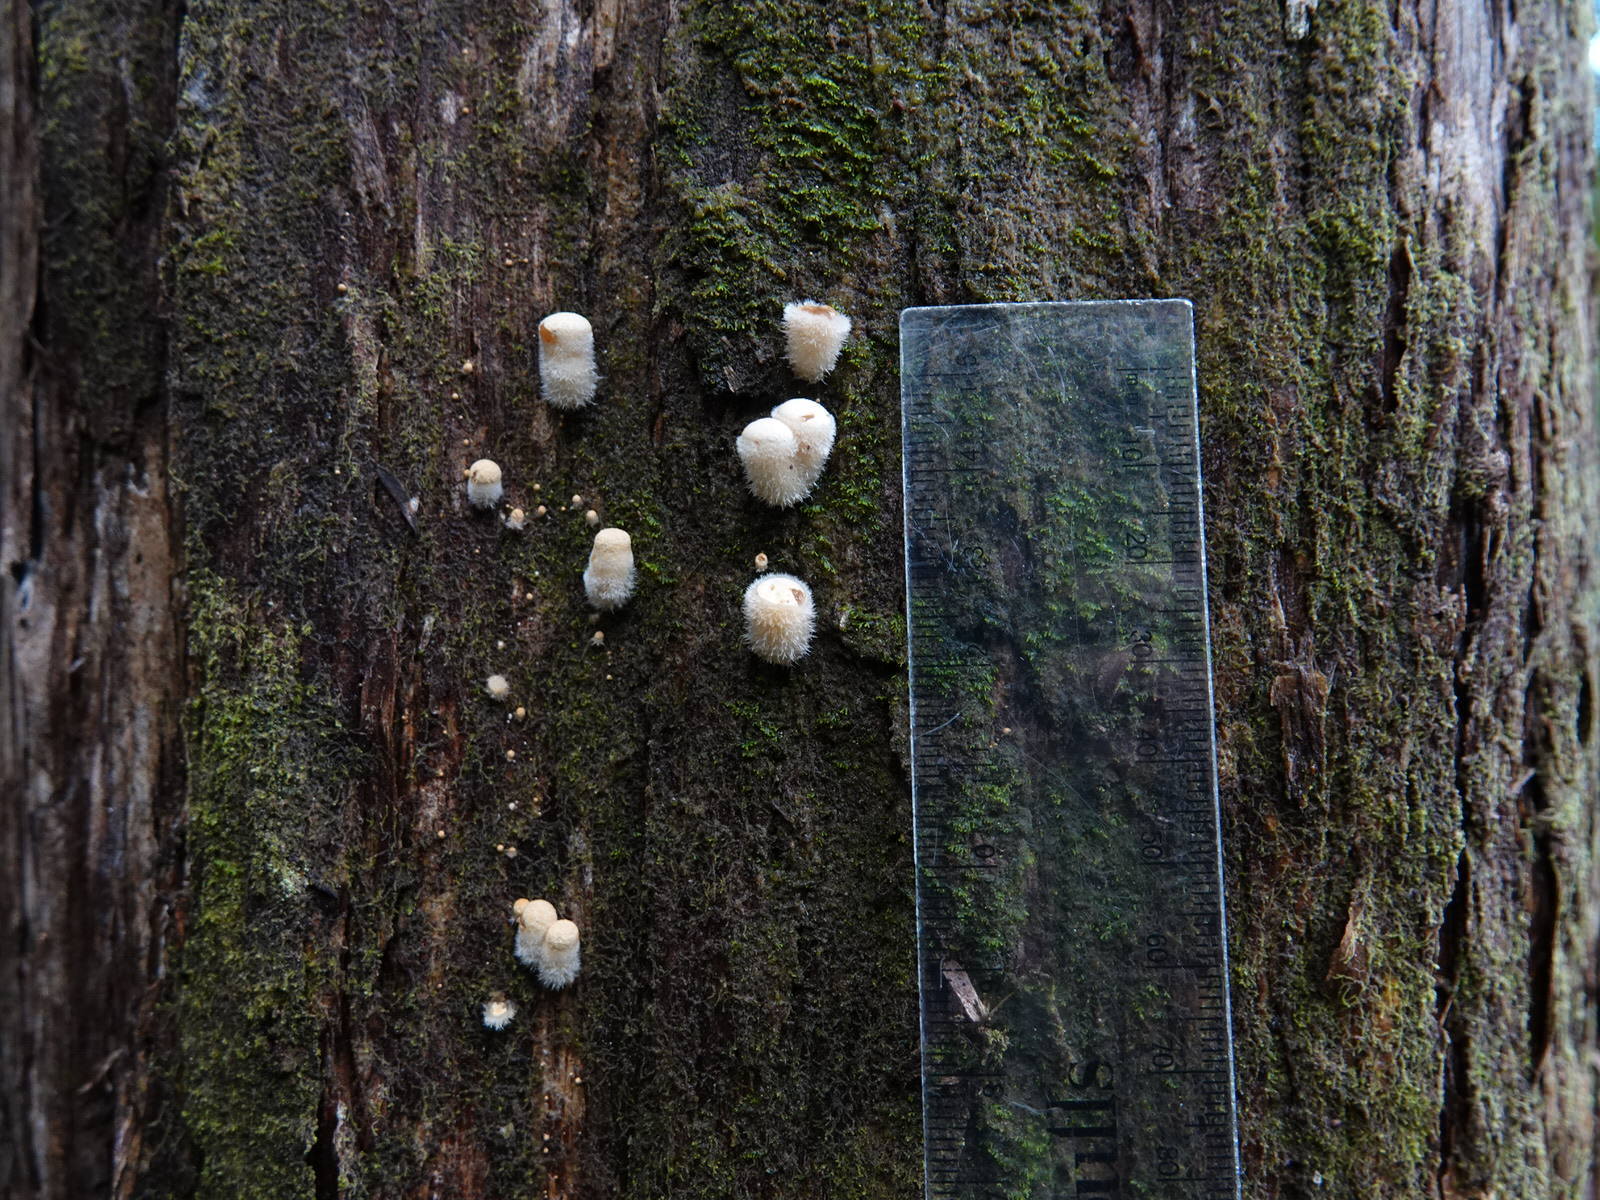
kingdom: Fungi
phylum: Basidiomycota
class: Agaricomycetes
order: Agaricales
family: Agaricaceae
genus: Nidula
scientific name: Nidula niveotomentosa
